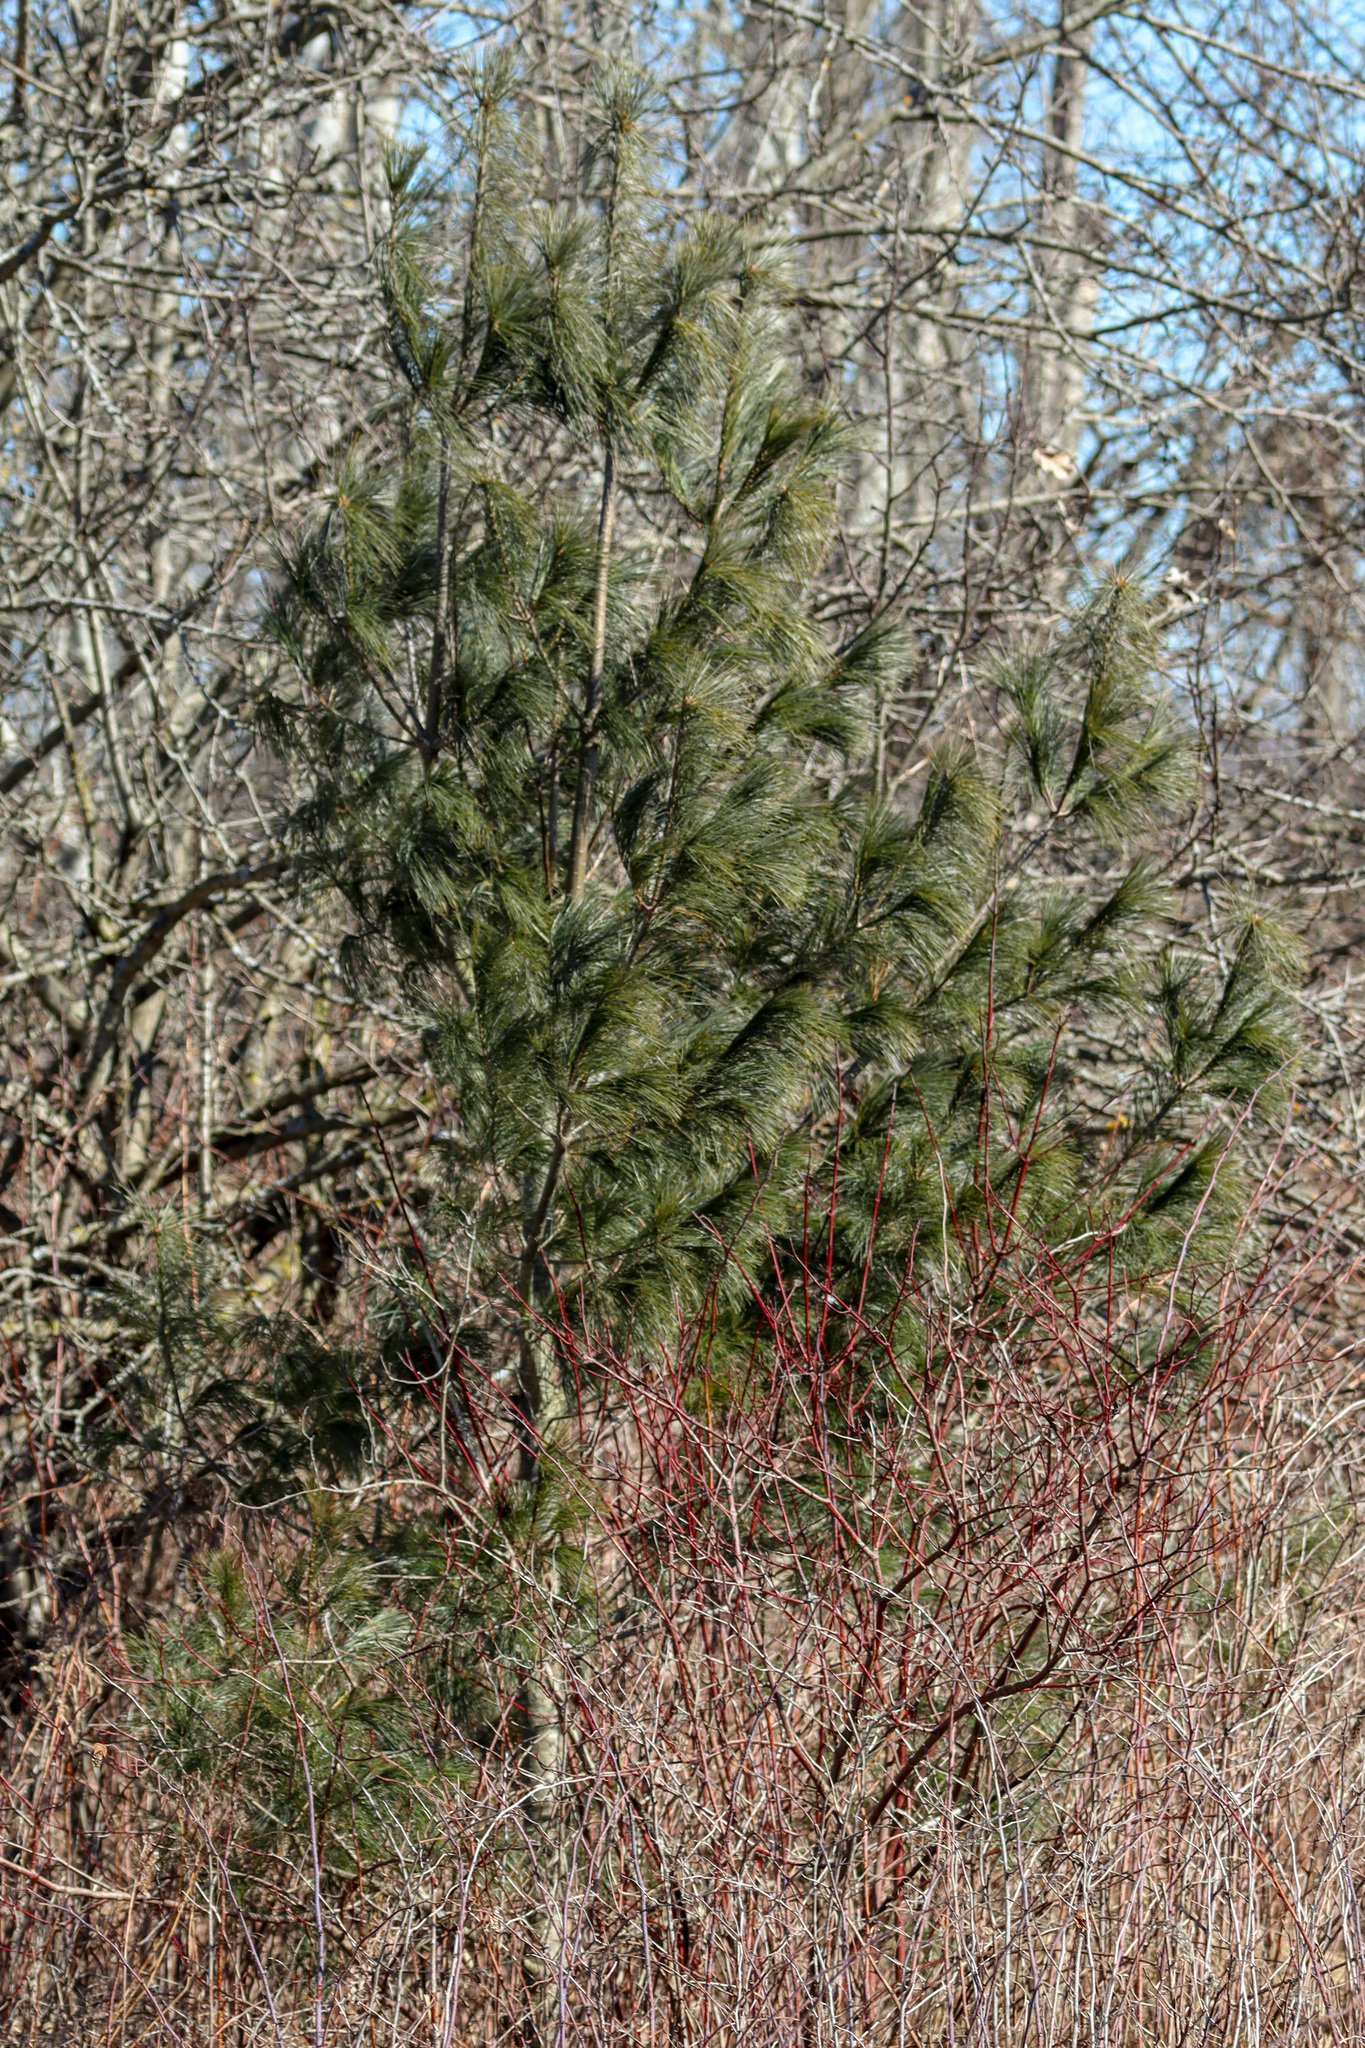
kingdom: Plantae
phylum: Tracheophyta
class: Pinopsida
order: Pinales
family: Pinaceae
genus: Pinus
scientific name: Pinus strobus
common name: Weymouth pine
